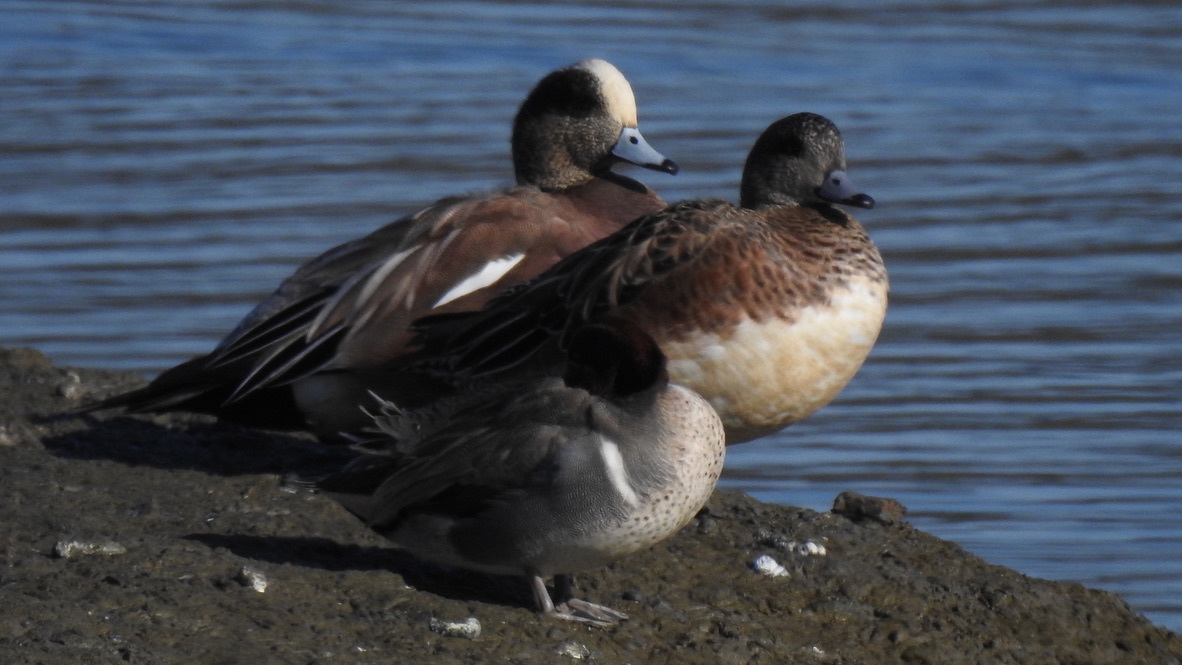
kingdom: Animalia
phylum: Chordata
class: Aves
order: Anseriformes
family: Anatidae
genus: Mareca
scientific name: Mareca americana
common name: American wigeon
